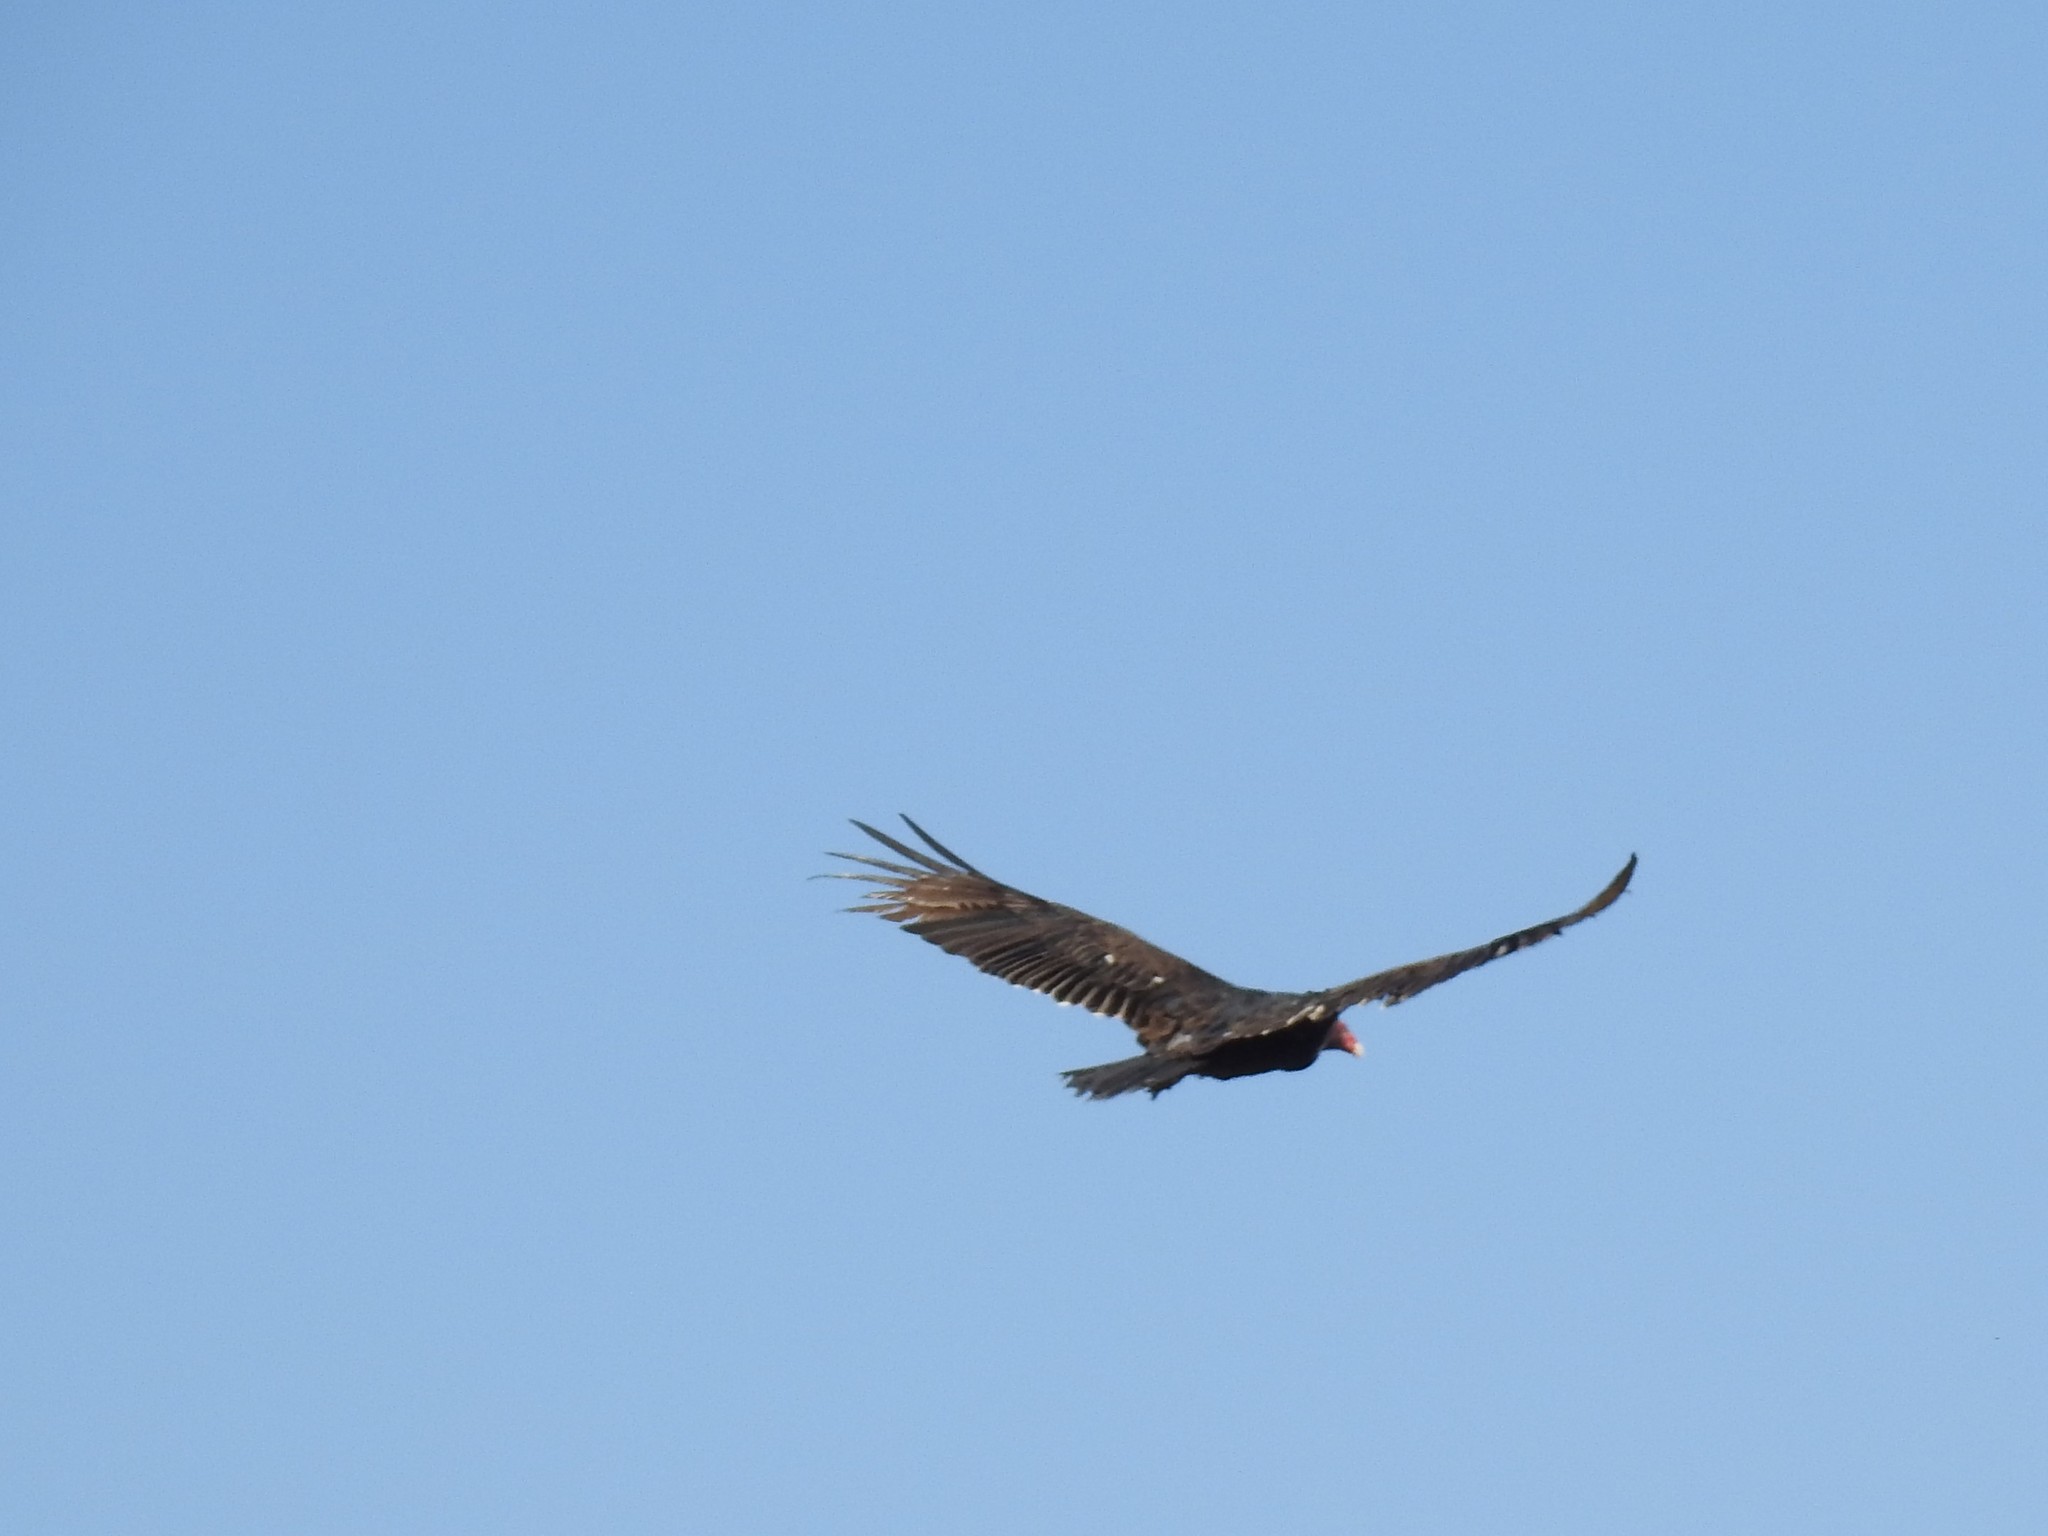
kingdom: Animalia
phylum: Chordata
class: Aves
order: Accipitriformes
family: Cathartidae
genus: Cathartes
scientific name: Cathartes aura
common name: Turkey vulture
